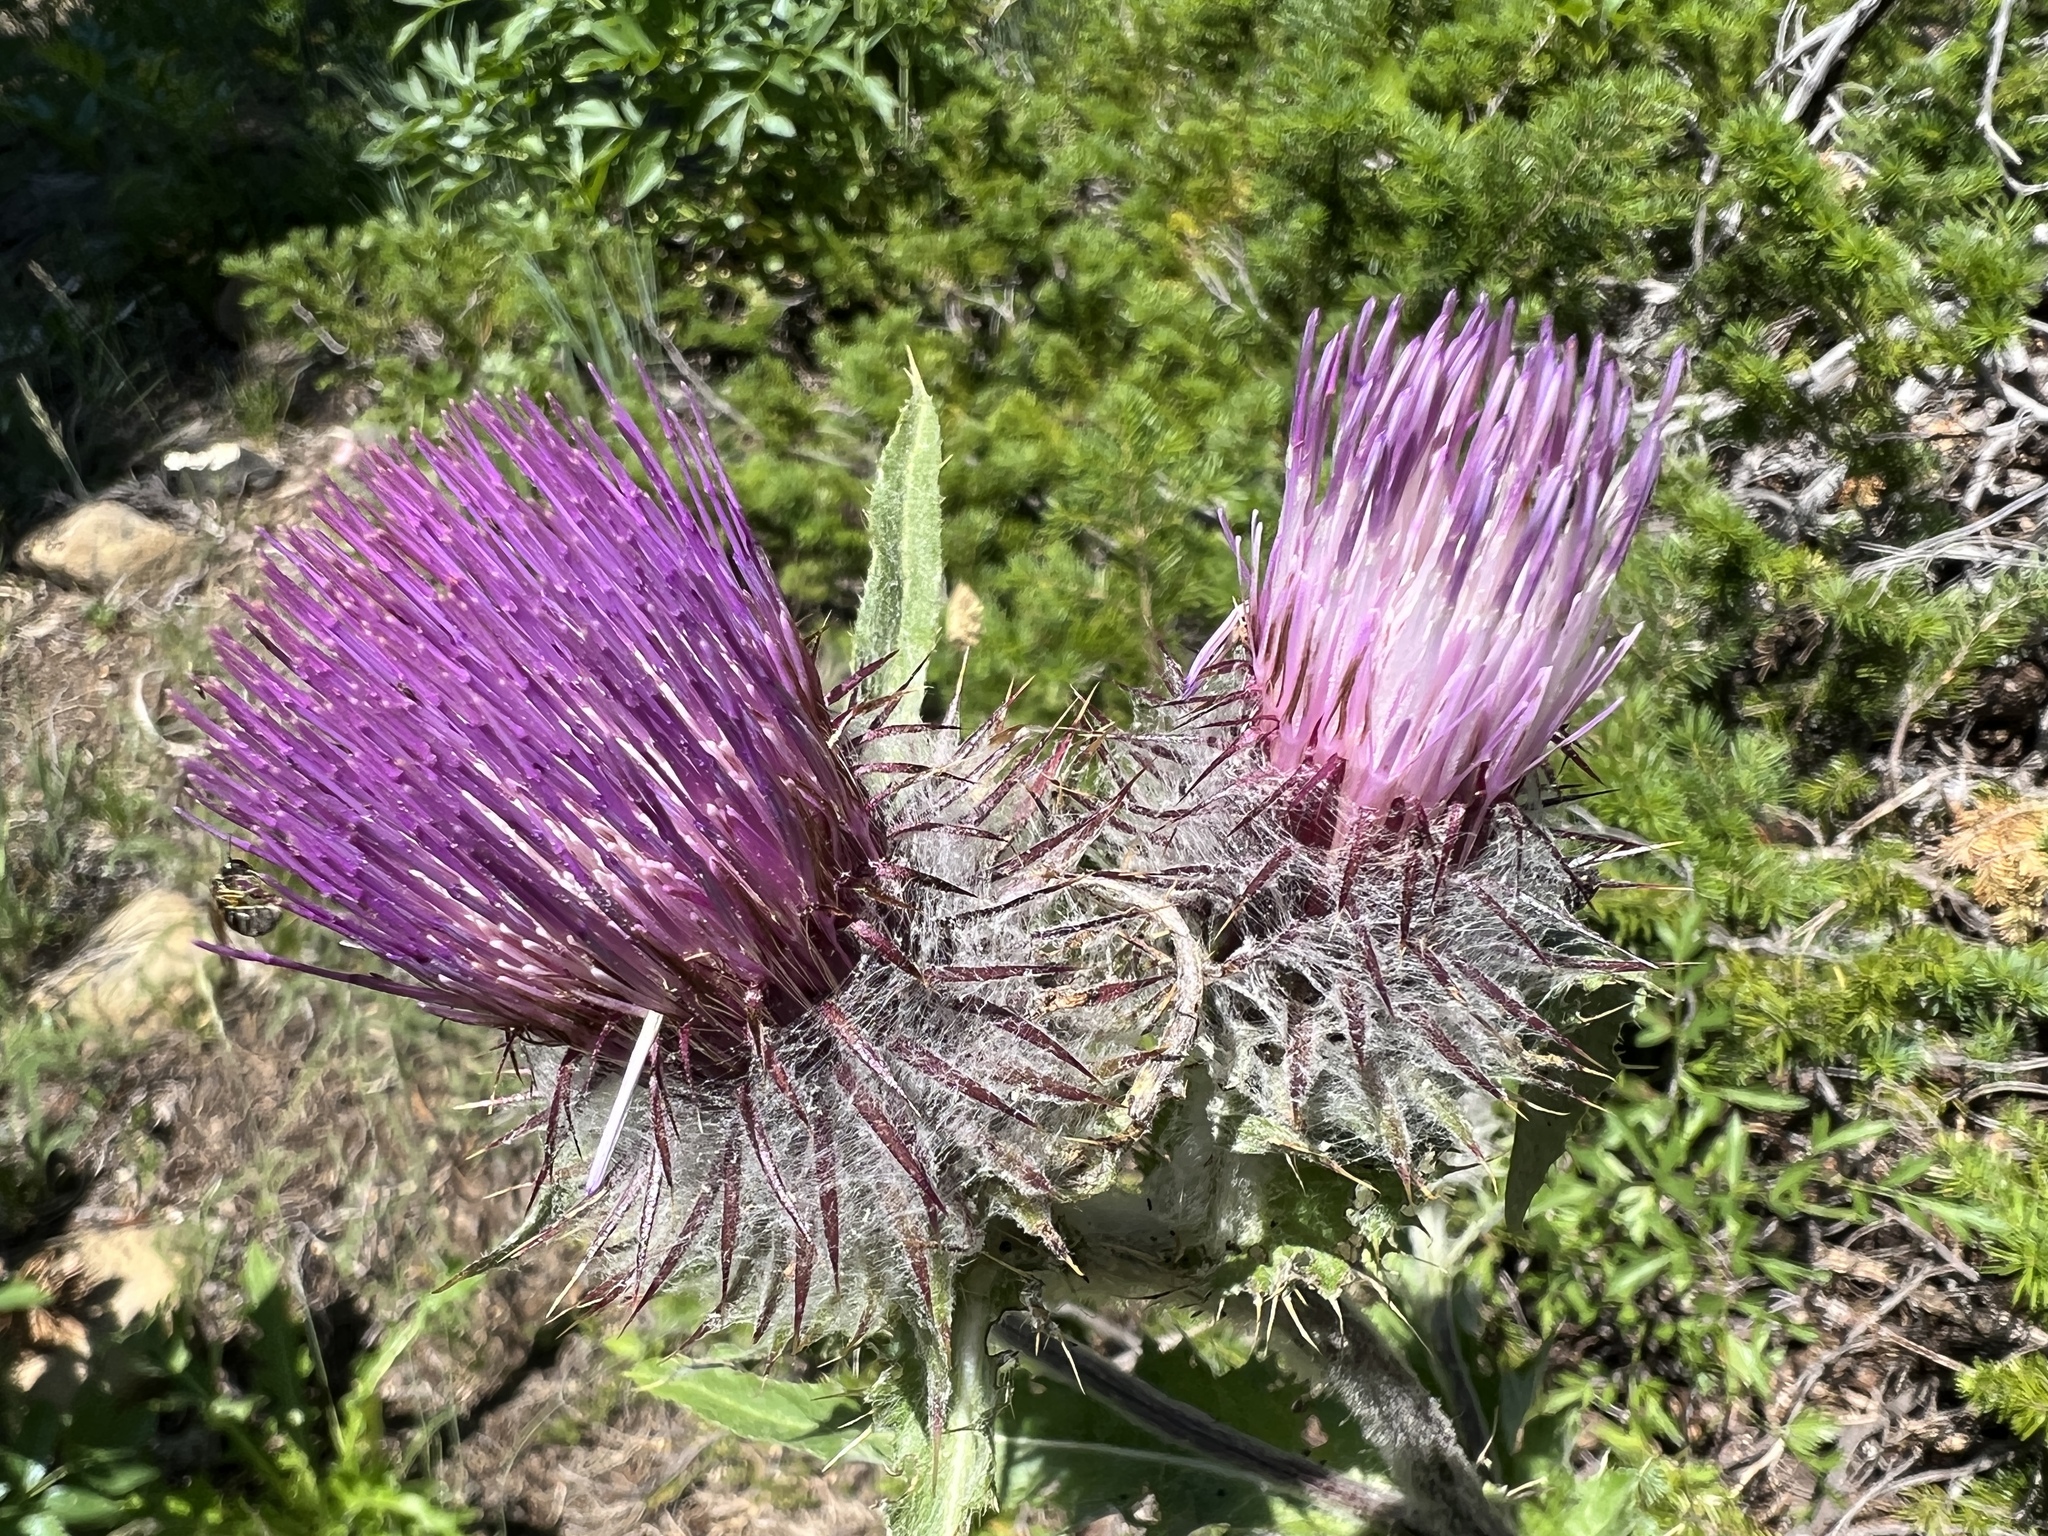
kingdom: Plantae
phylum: Tracheophyta
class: Magnoliopsida
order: Asterales
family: Asteraceae
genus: Cirsium
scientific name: Cirsium edule
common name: Indian thistle
